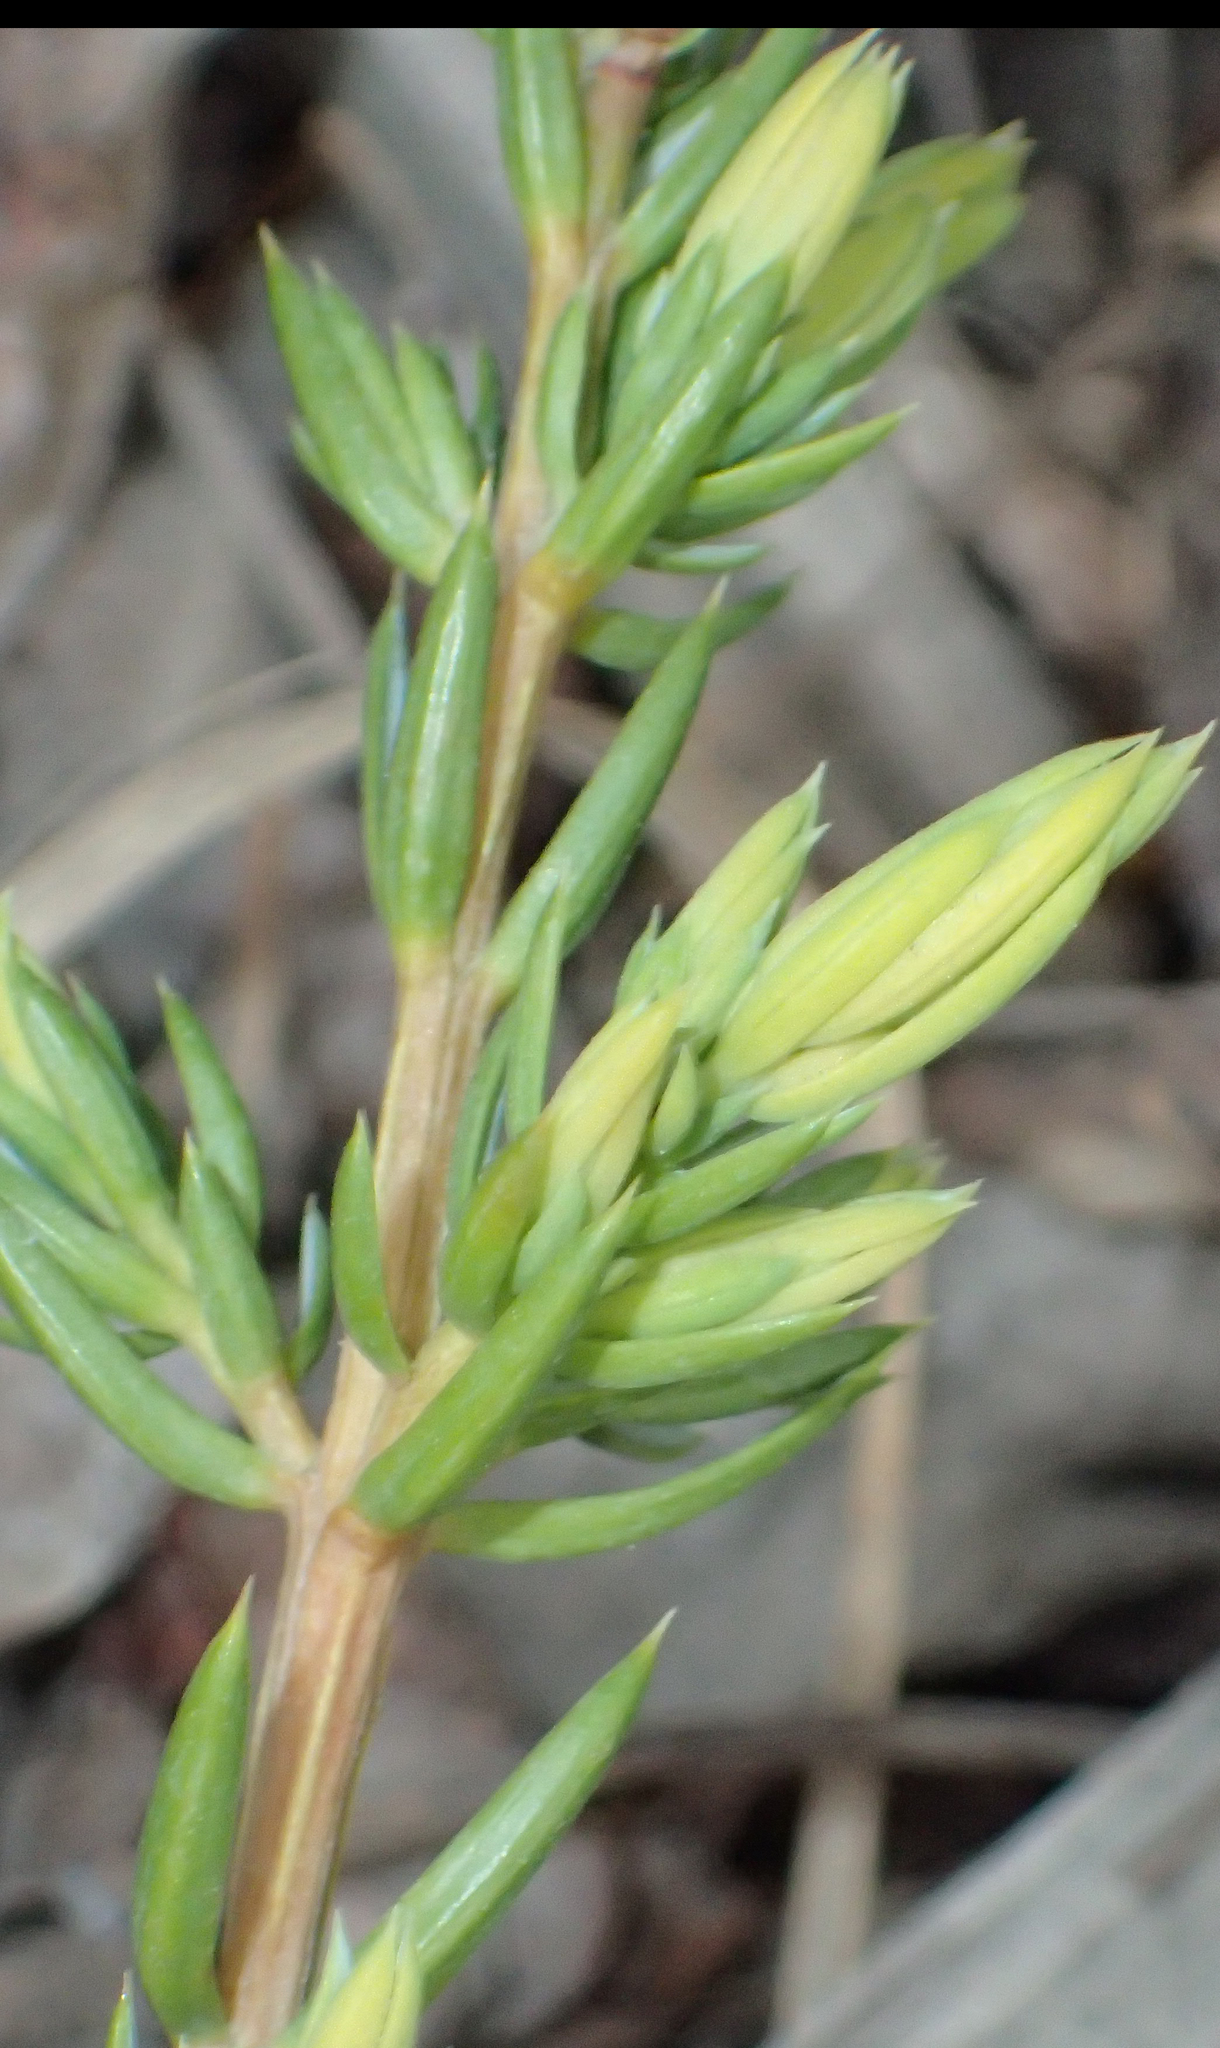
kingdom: Plantae
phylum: Tracheophyta
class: Pinopsida
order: Pinales
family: Cupressaceae
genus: Juniperus
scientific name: Juniperus communis
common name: Common juniper
